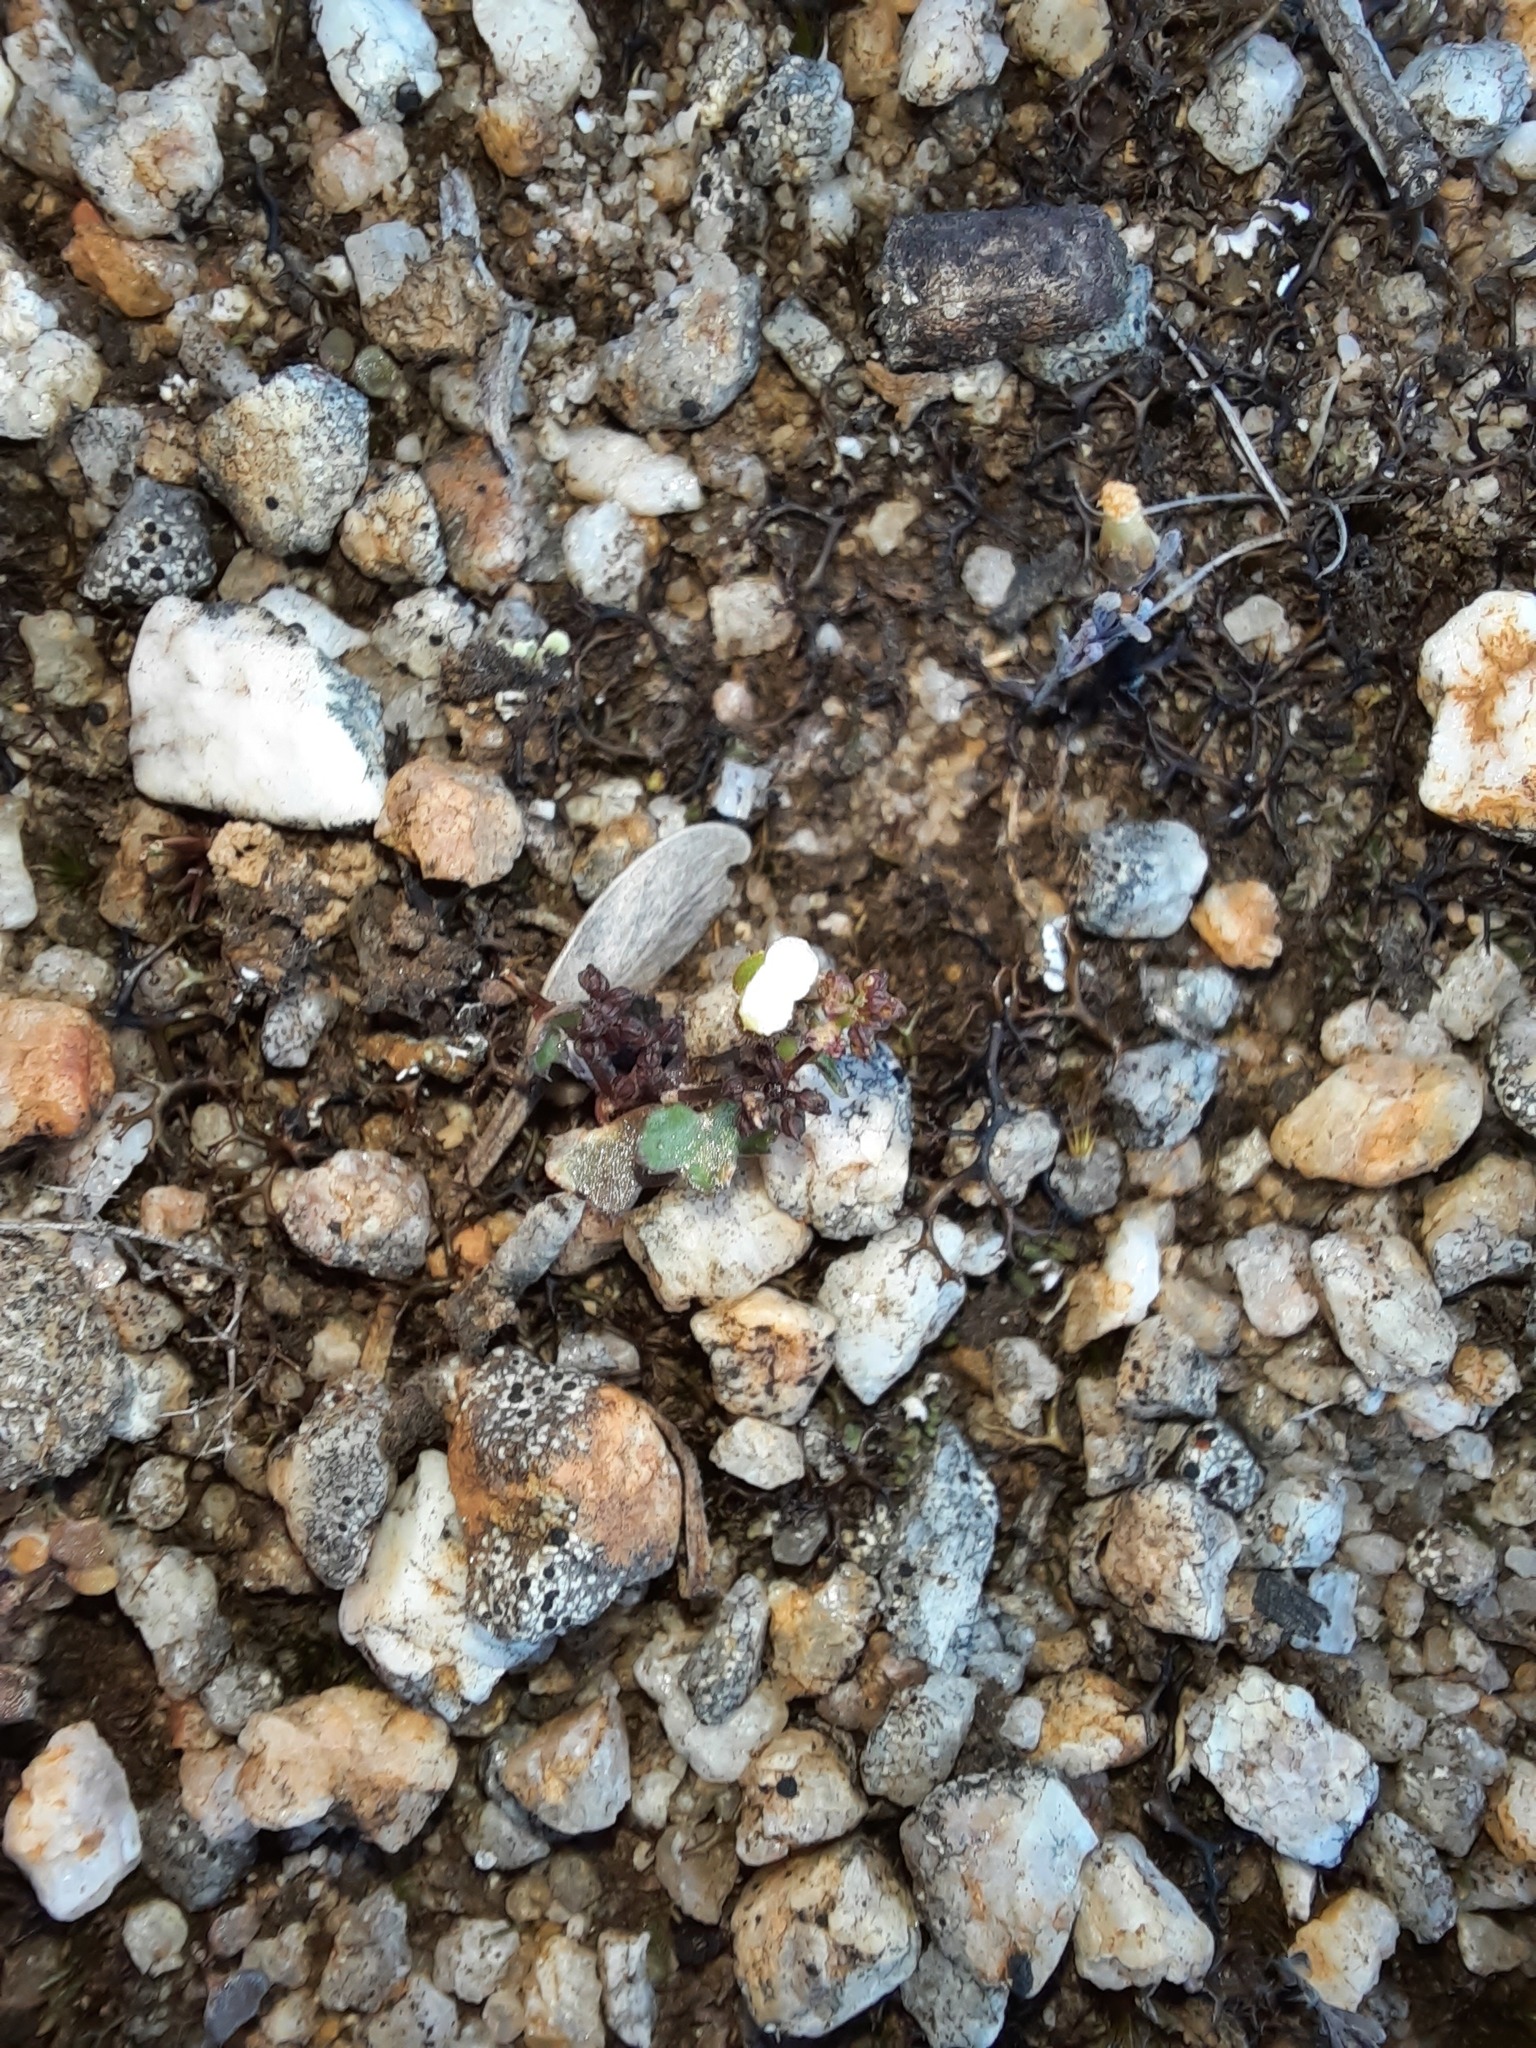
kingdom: Plantae
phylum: Tracheophyta
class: Magnoliopsida
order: Apiales
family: Araliaceae
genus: Hydrocotyle
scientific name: Hydrocotyle callicarpa
